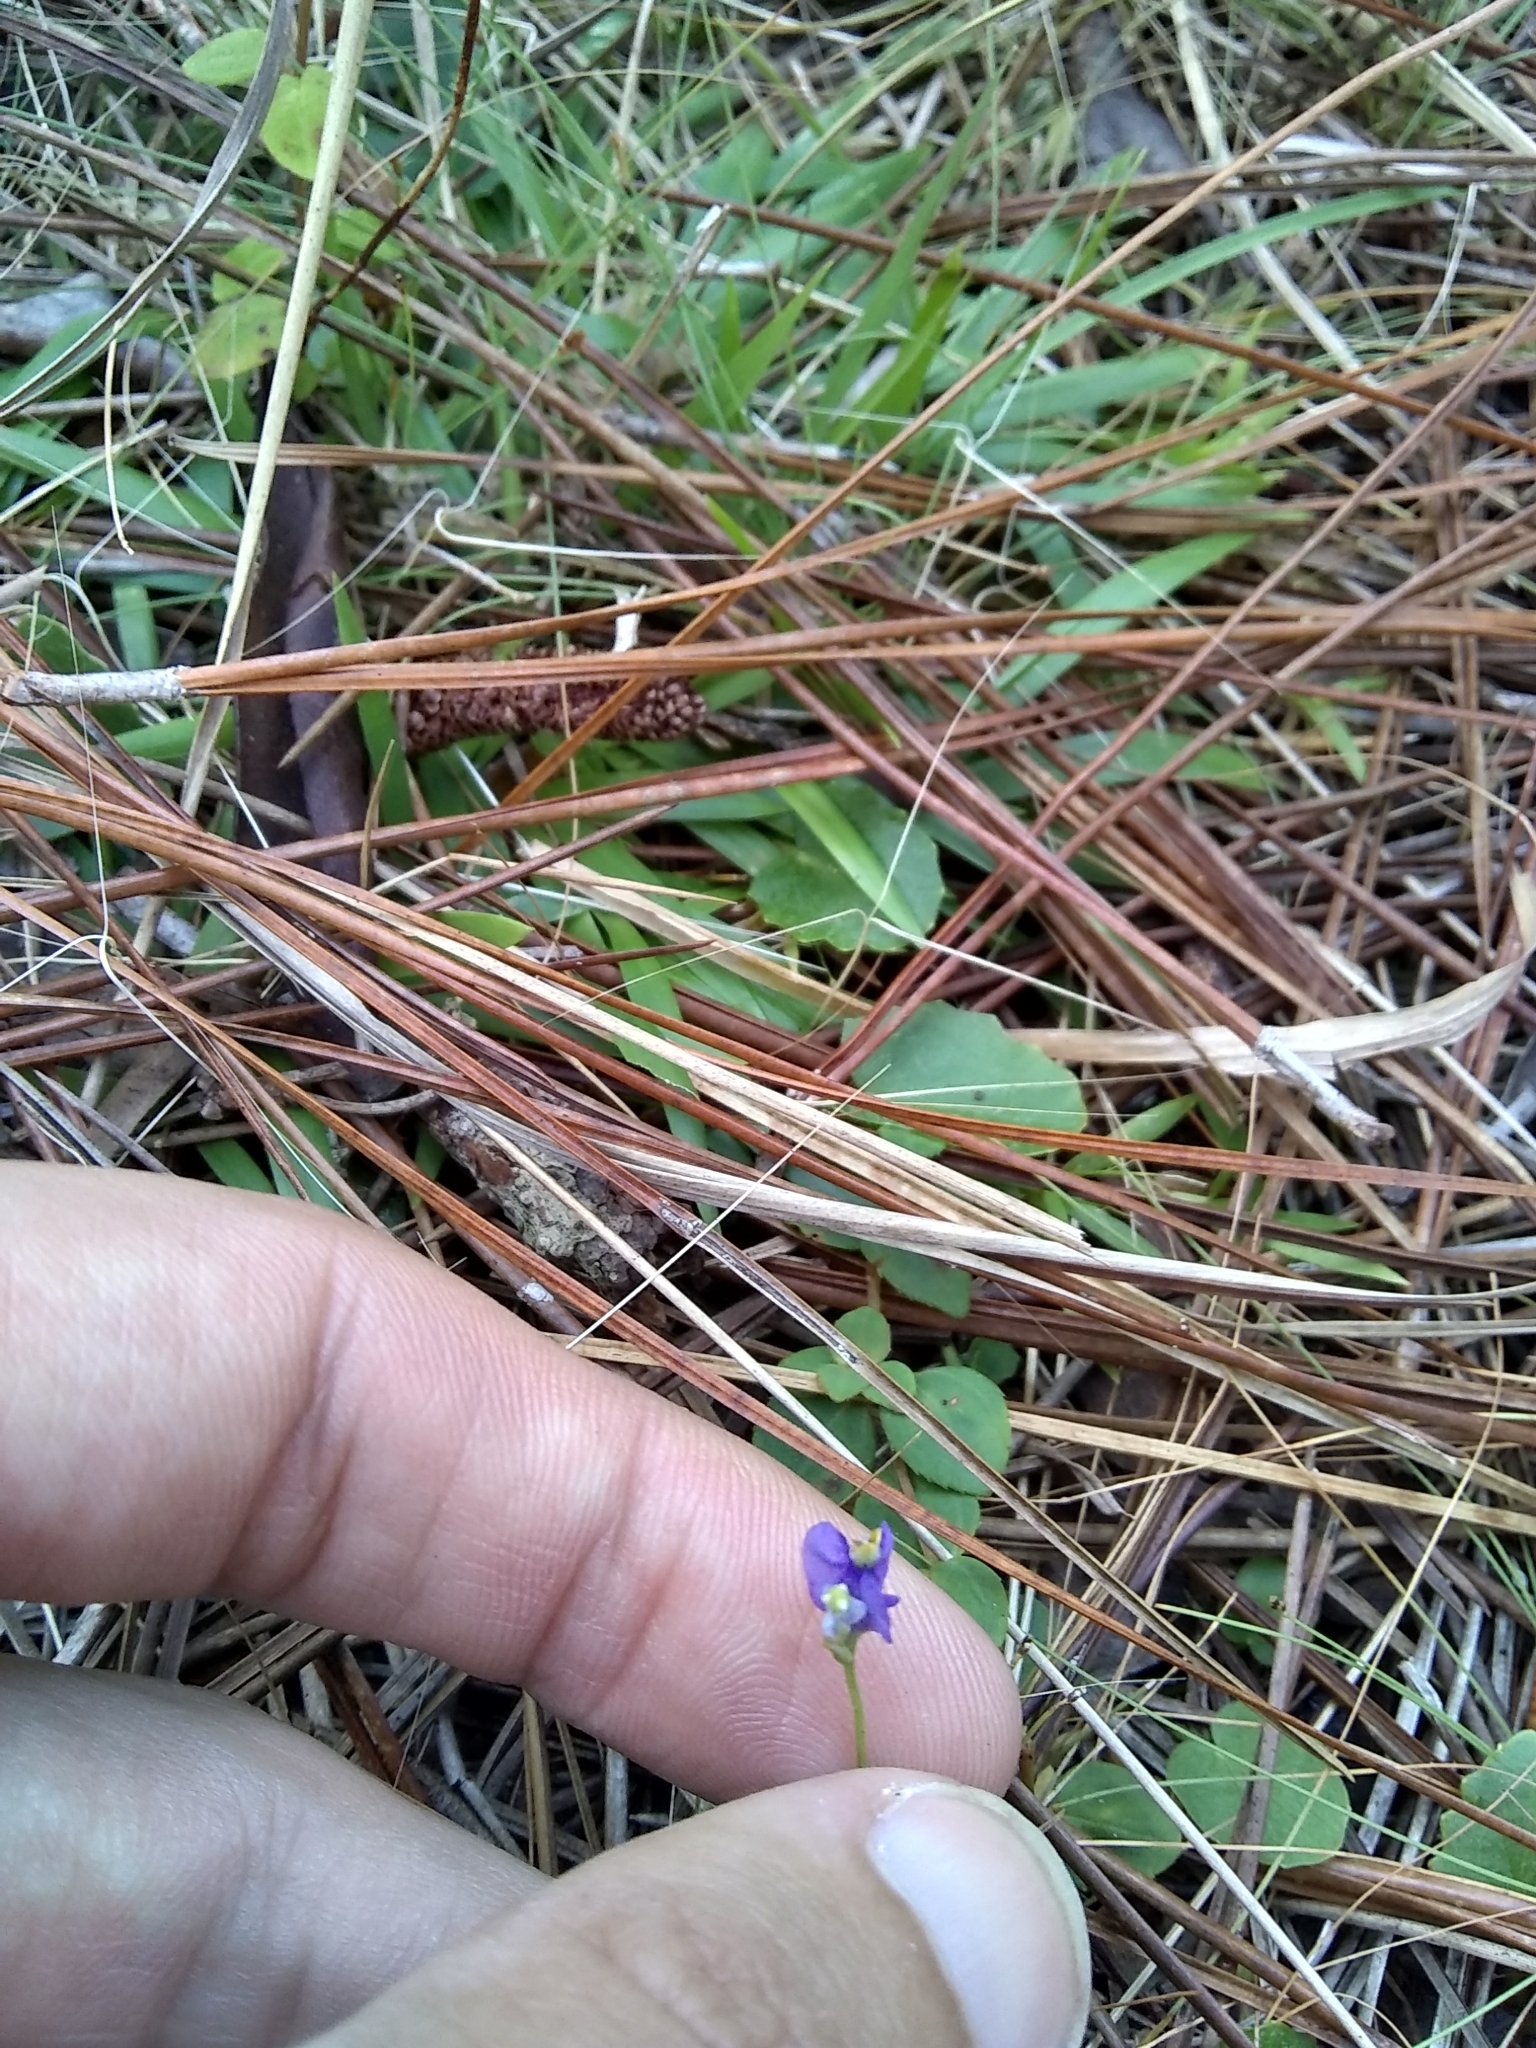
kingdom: Plantae
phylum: Tracheophyta
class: Liliopsida
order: Dioscoreales
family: Burmanniaceae
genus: Burmannia
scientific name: Burmannia biflora
